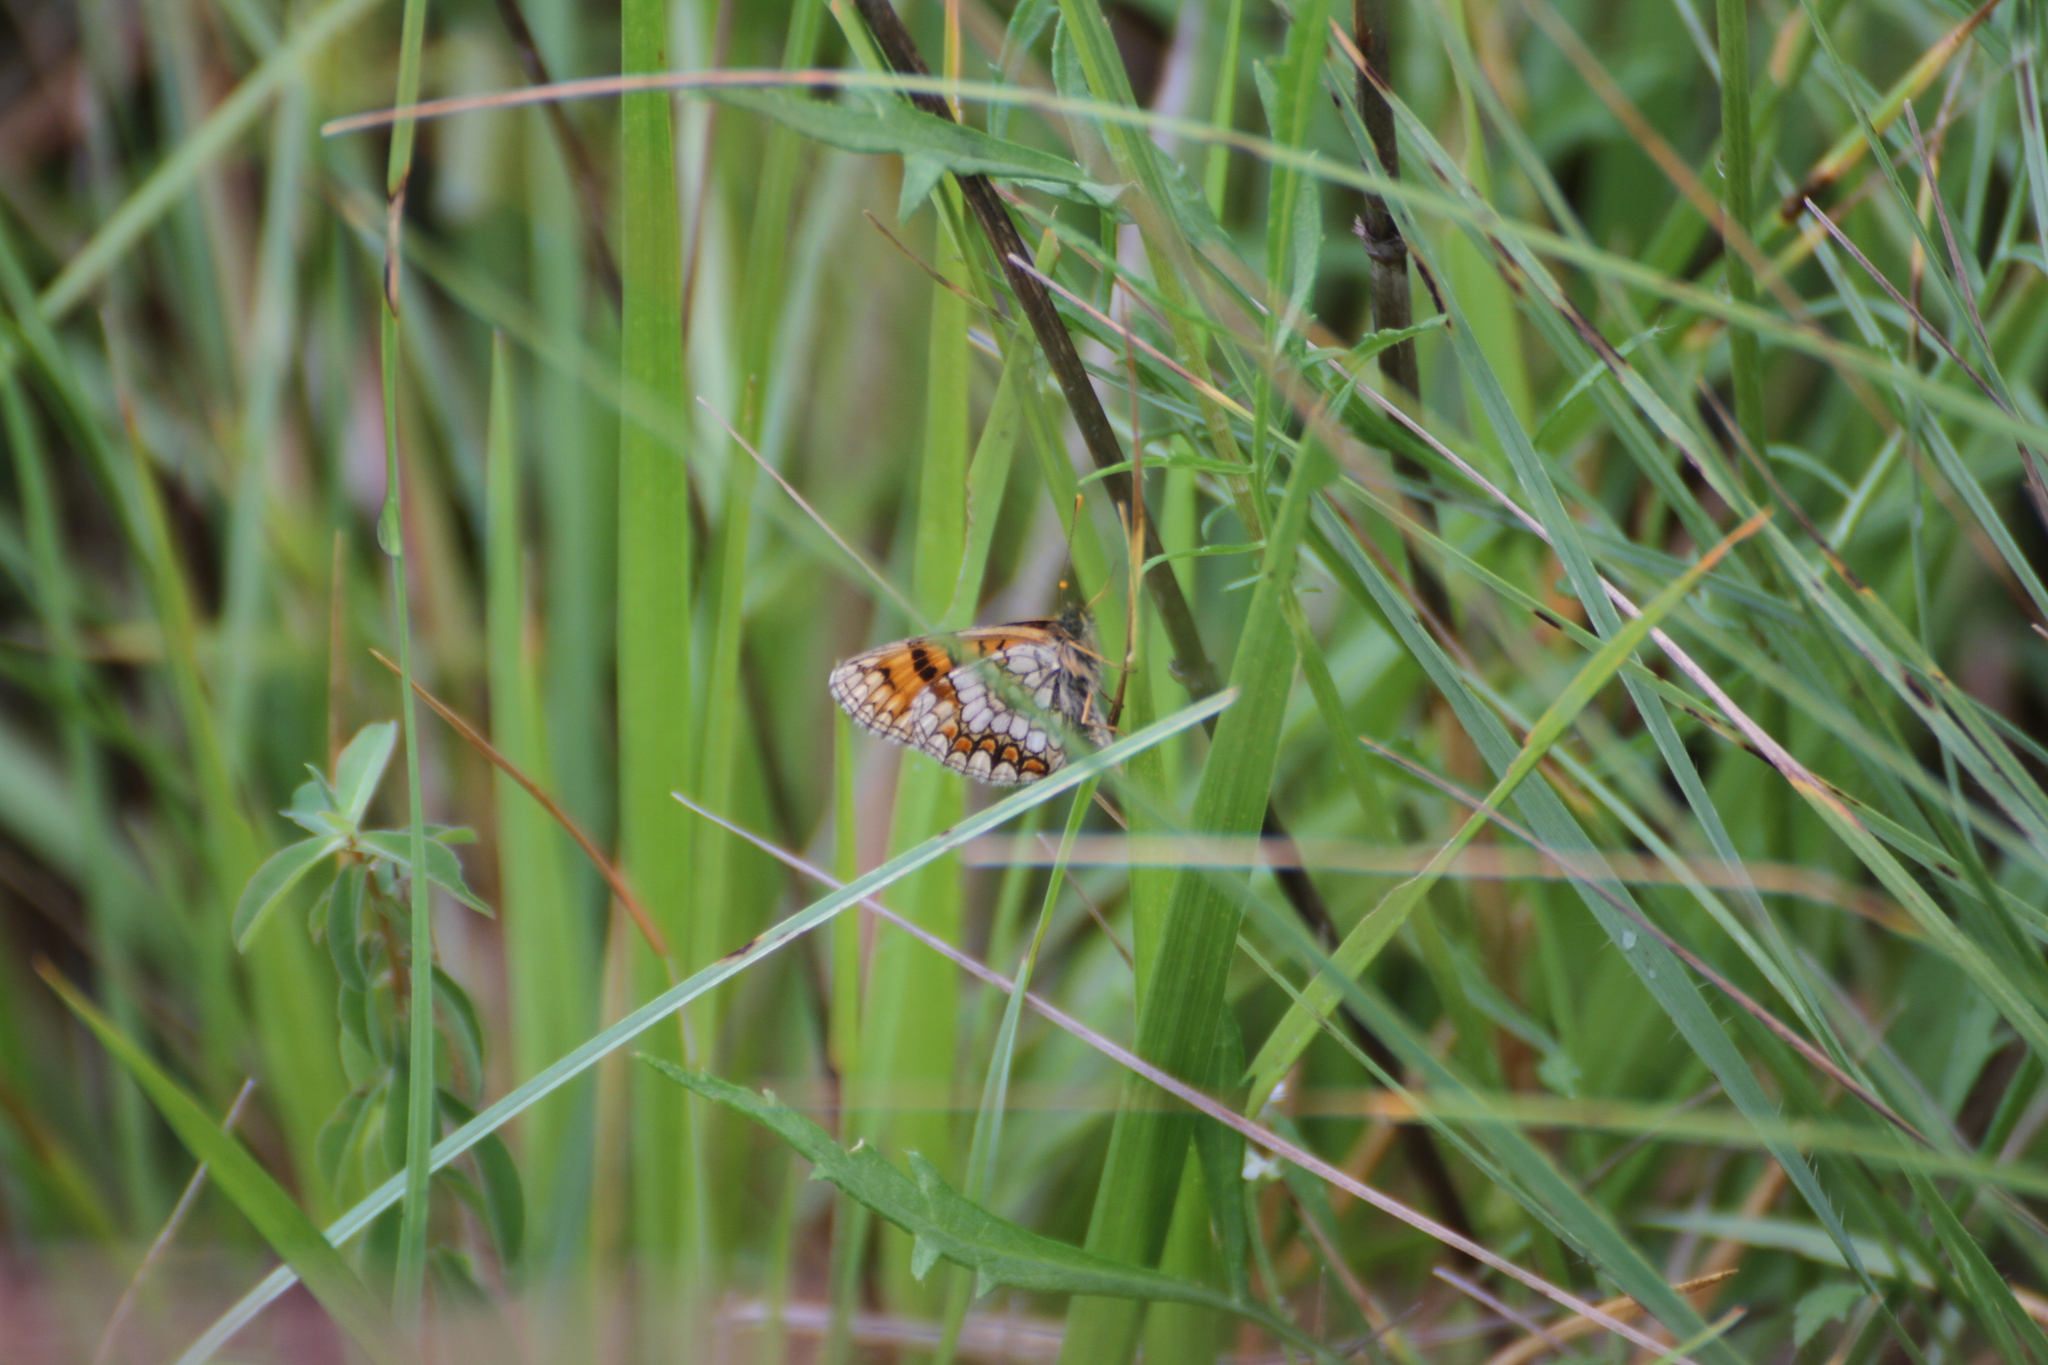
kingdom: Animalia
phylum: Arthropoda
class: Insecta
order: Lepidoptera
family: Nymphalidae
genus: Mellicta
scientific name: Mellicta athalia
